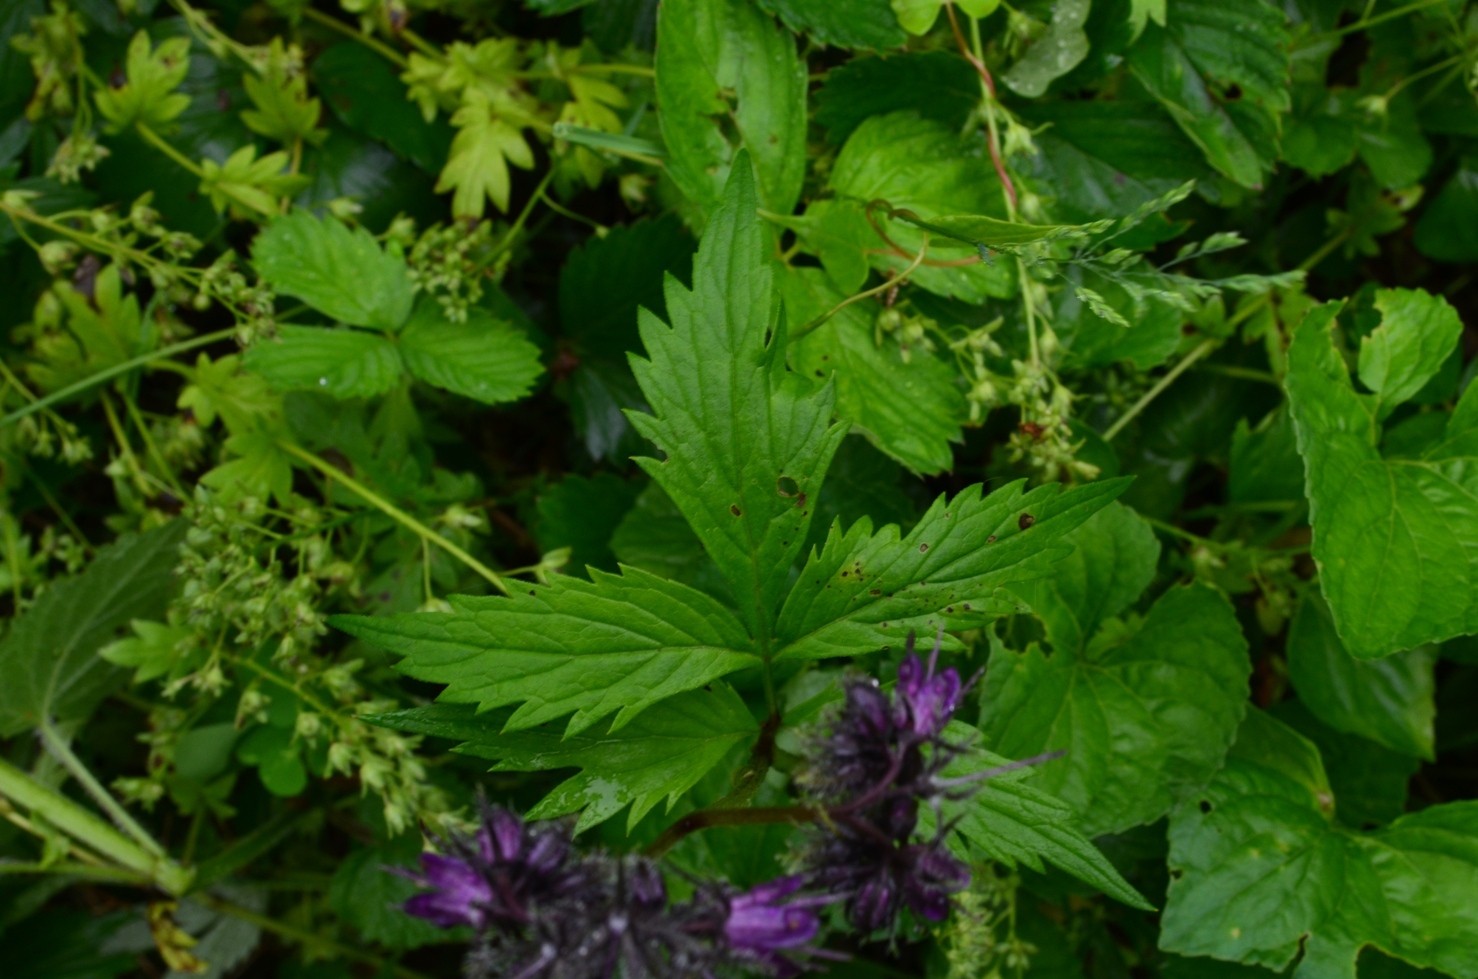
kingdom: Plantae
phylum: Tracheophyta
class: Magnoliopsida
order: Boraginales
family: Hydrophyllaceae
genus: Hydrophyllum
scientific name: Hydrophyllum virginianum
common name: Virginia waterleaf
